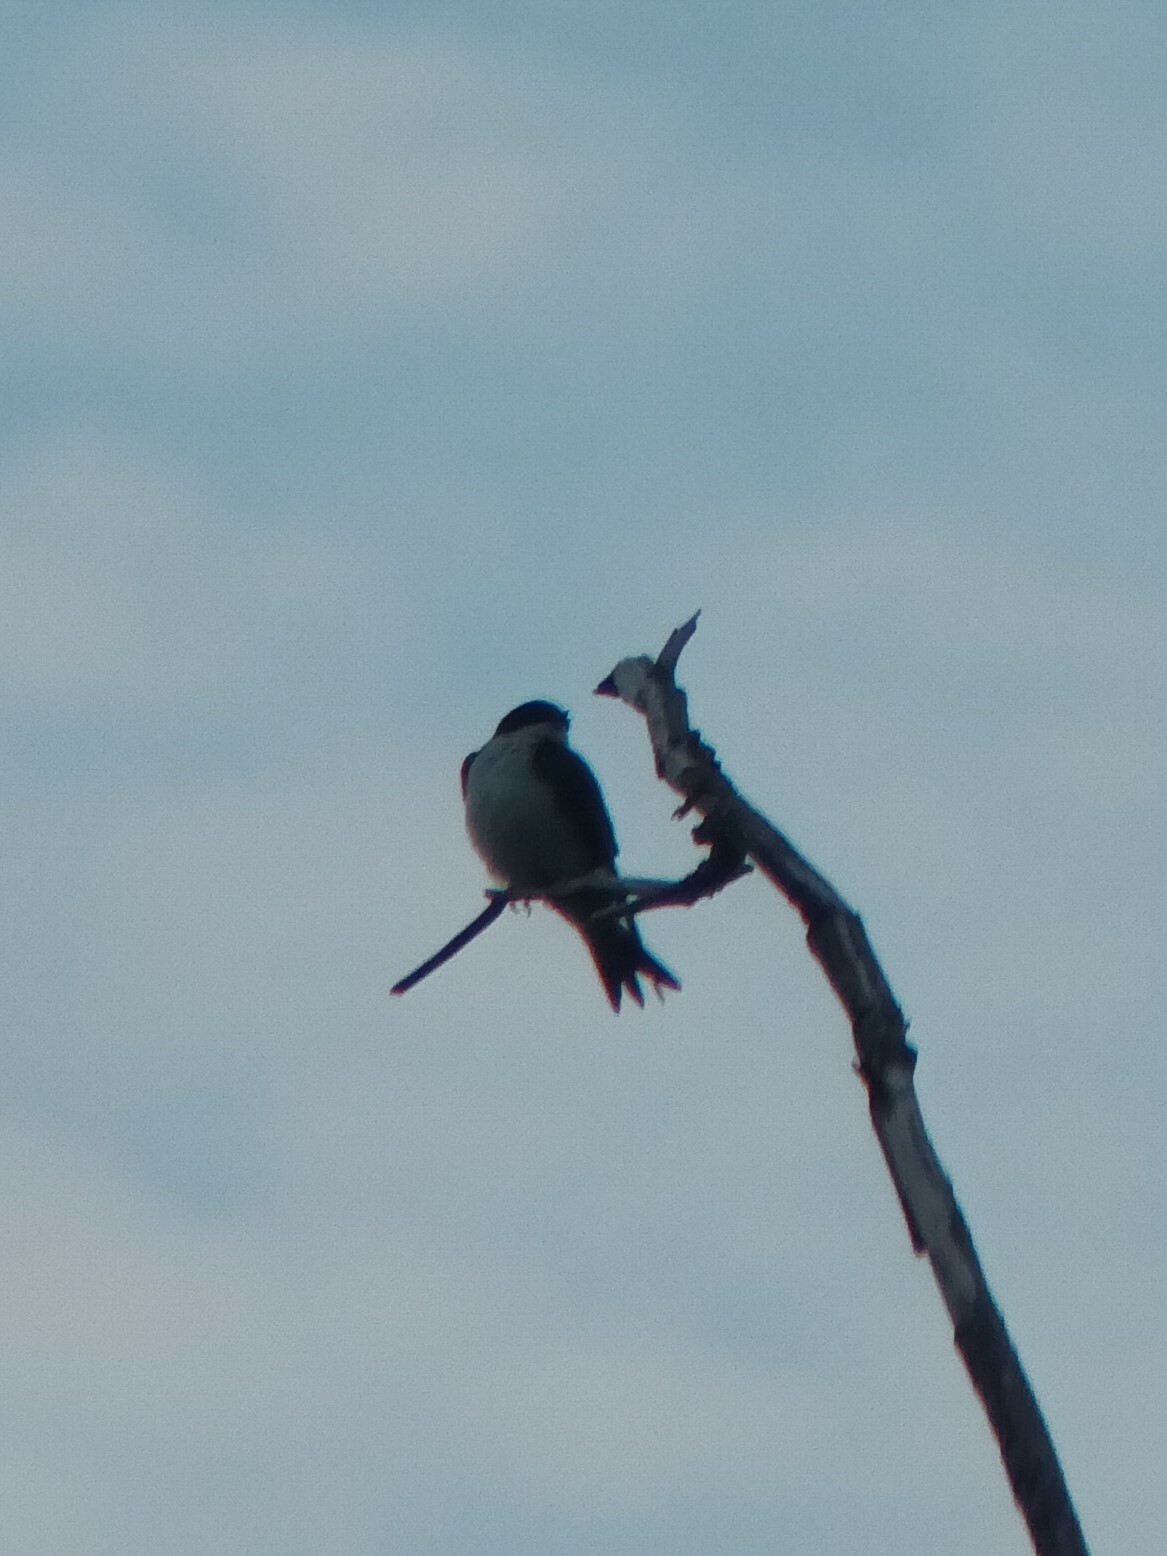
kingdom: Animalia
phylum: Chordata
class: Aves
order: Passeriformes
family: Hirundinidae
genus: Tachycineta
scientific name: Tachycineta bicolor
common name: Tree swallow
